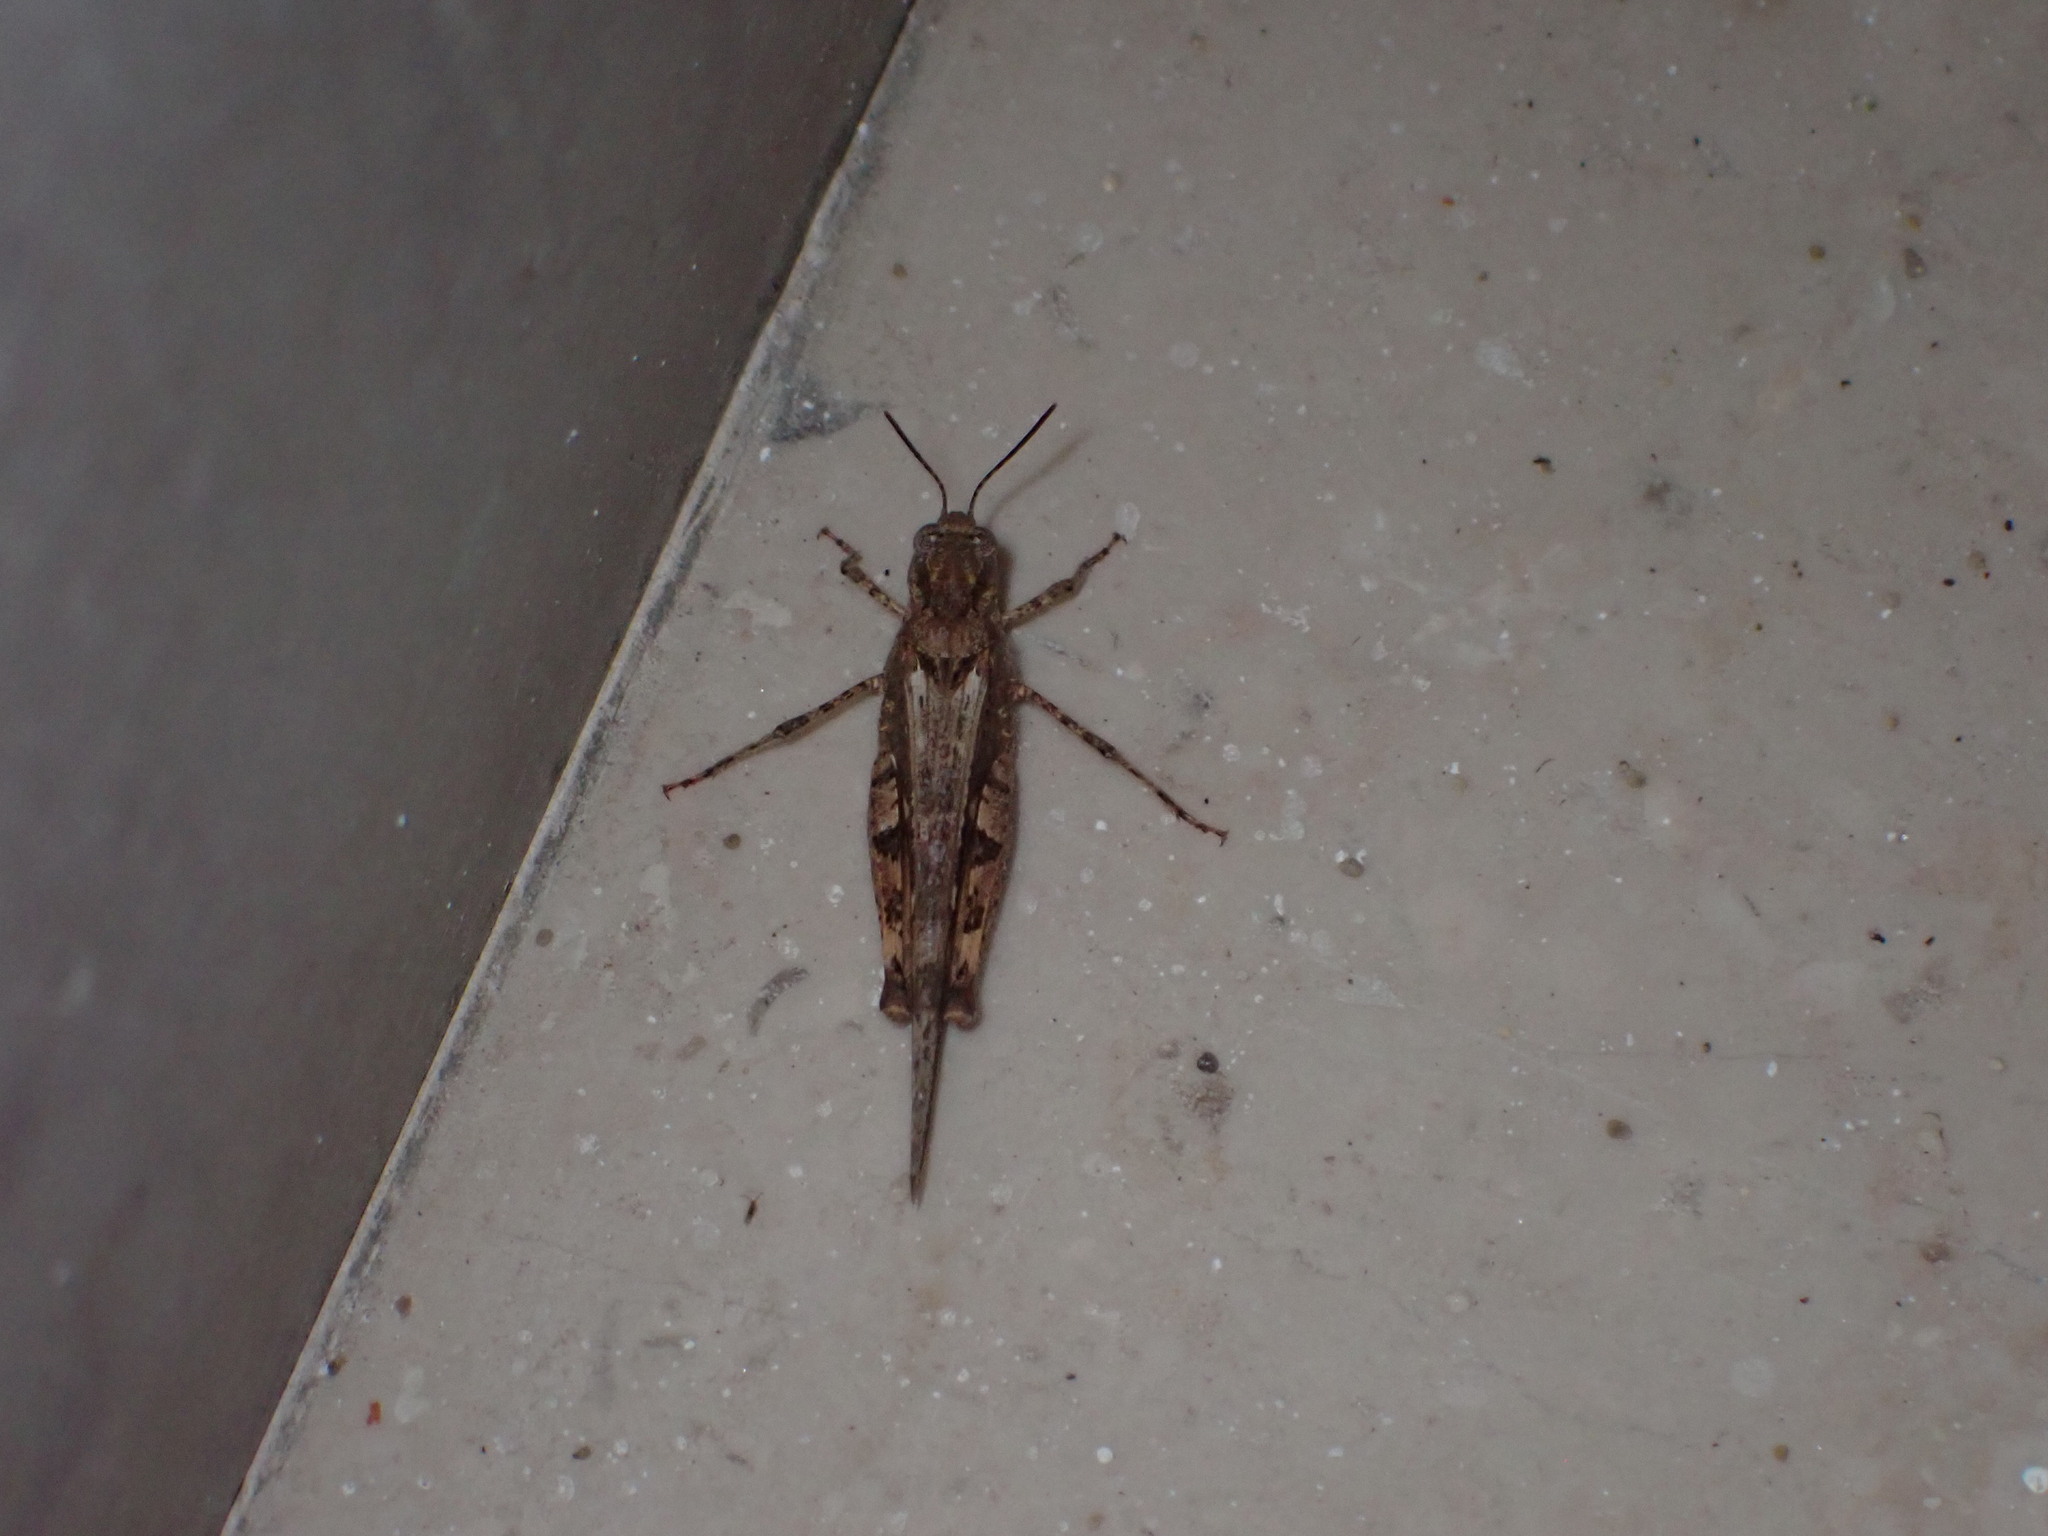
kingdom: Animalia
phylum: Arthropoda
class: Insecta
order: Orthoptera
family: Acrididae
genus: Acrotylus
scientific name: Acrotylus patruelis
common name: Slender burrowing grasshopper
